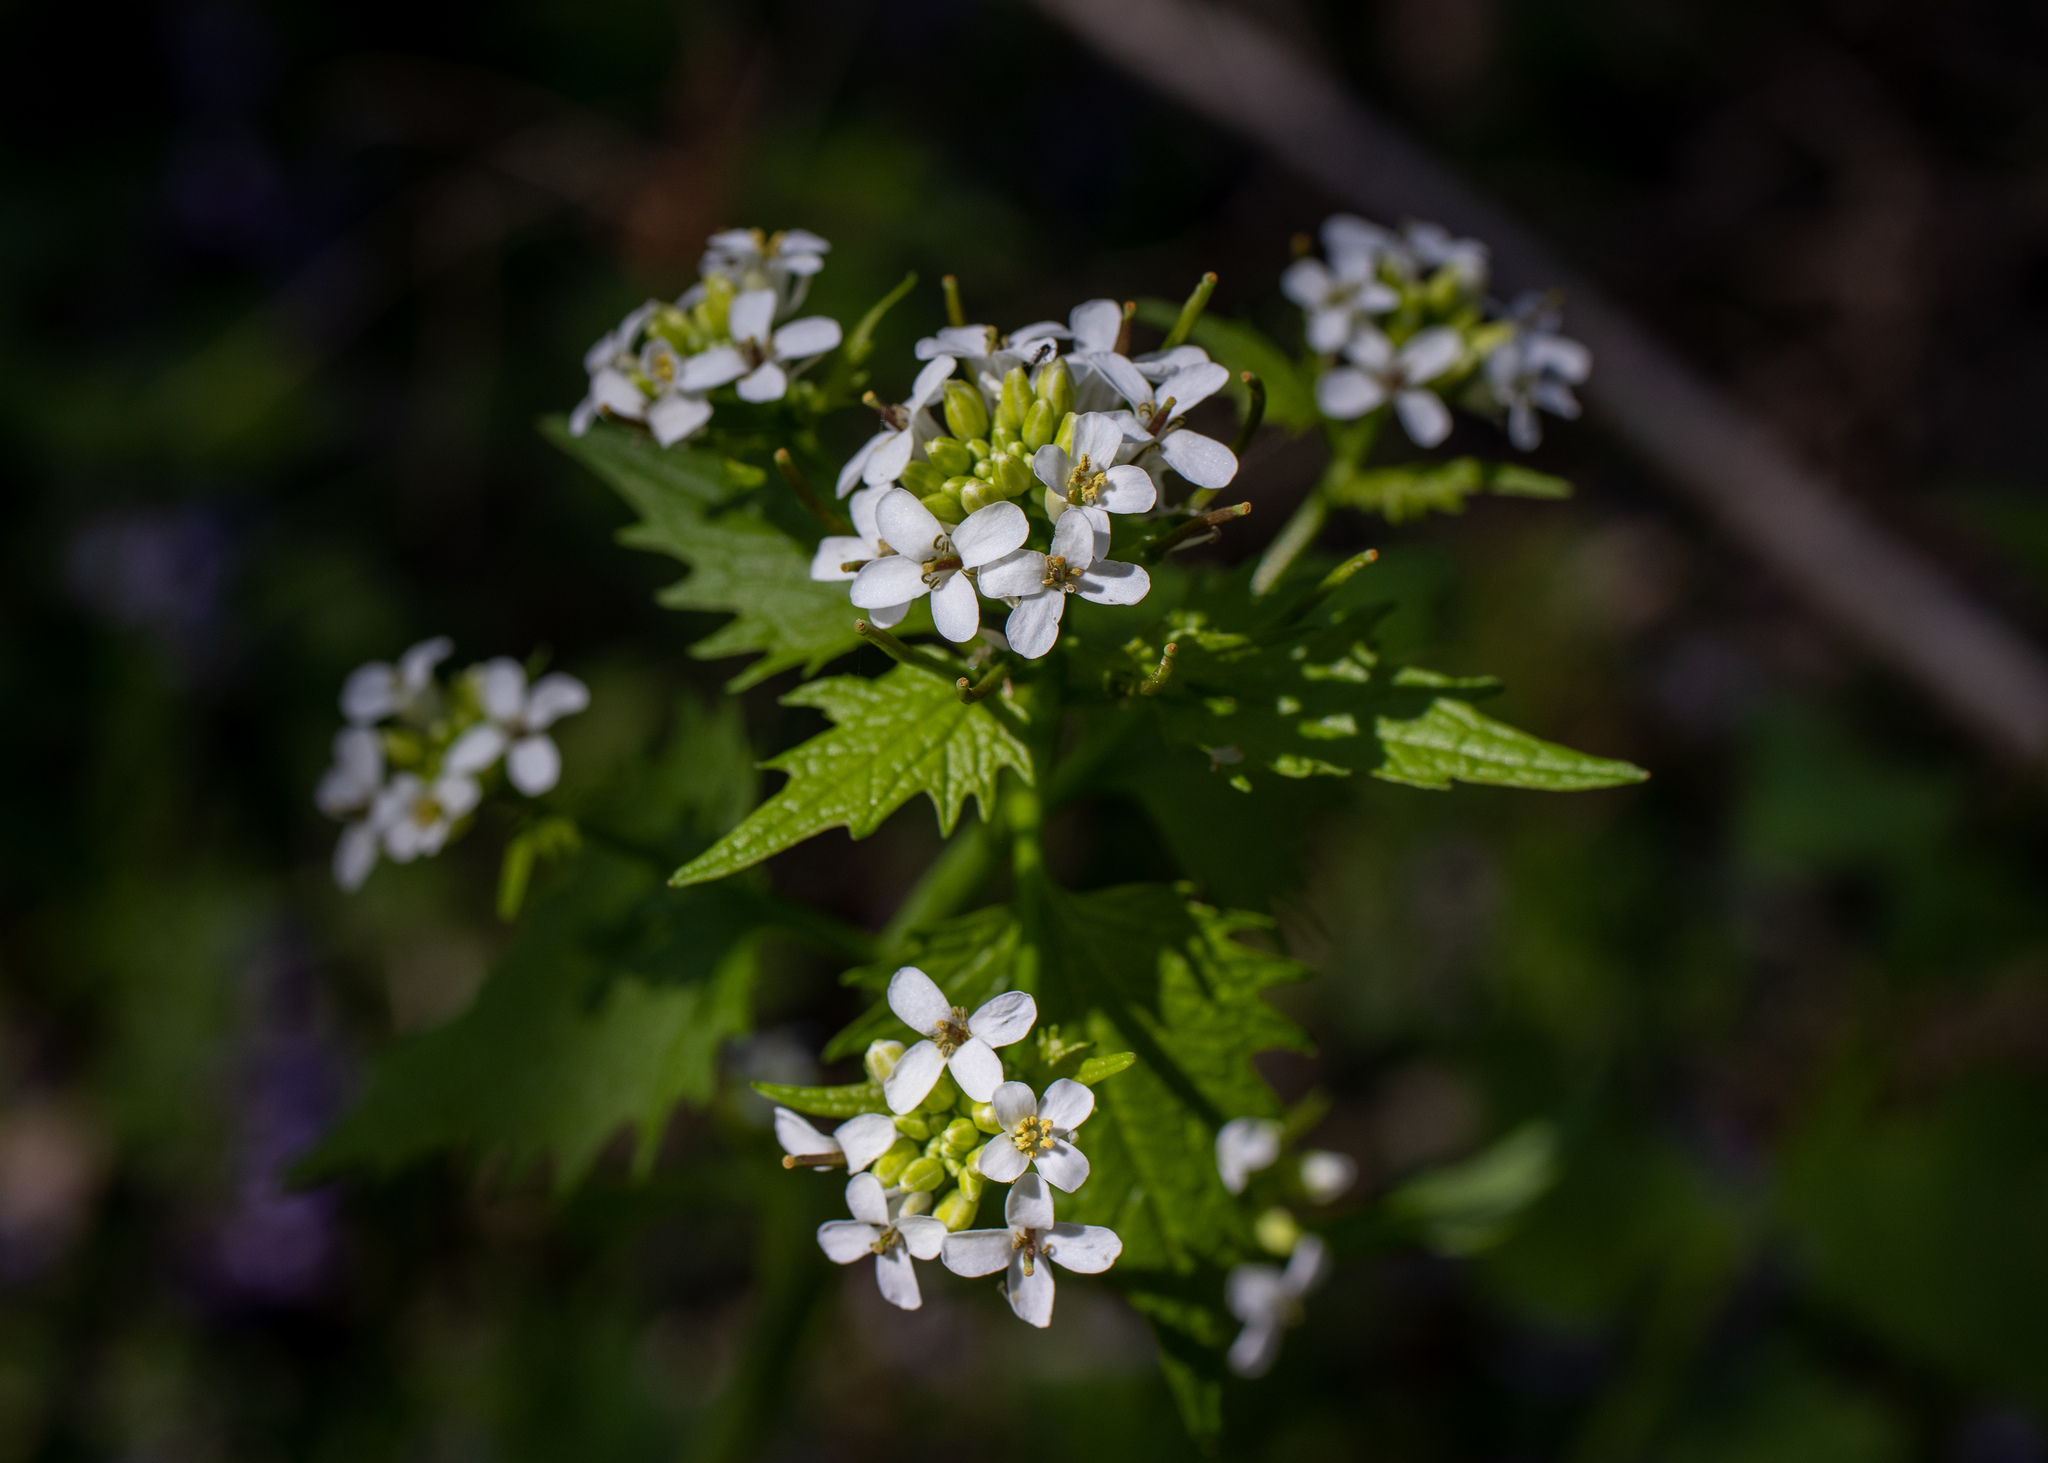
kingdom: Plantae
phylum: Tracheophyta
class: Magnoliopsida
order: Brassicales
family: Brassicaceae
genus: Alliaria
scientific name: Alliaria petiolata
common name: Garlic mustard
